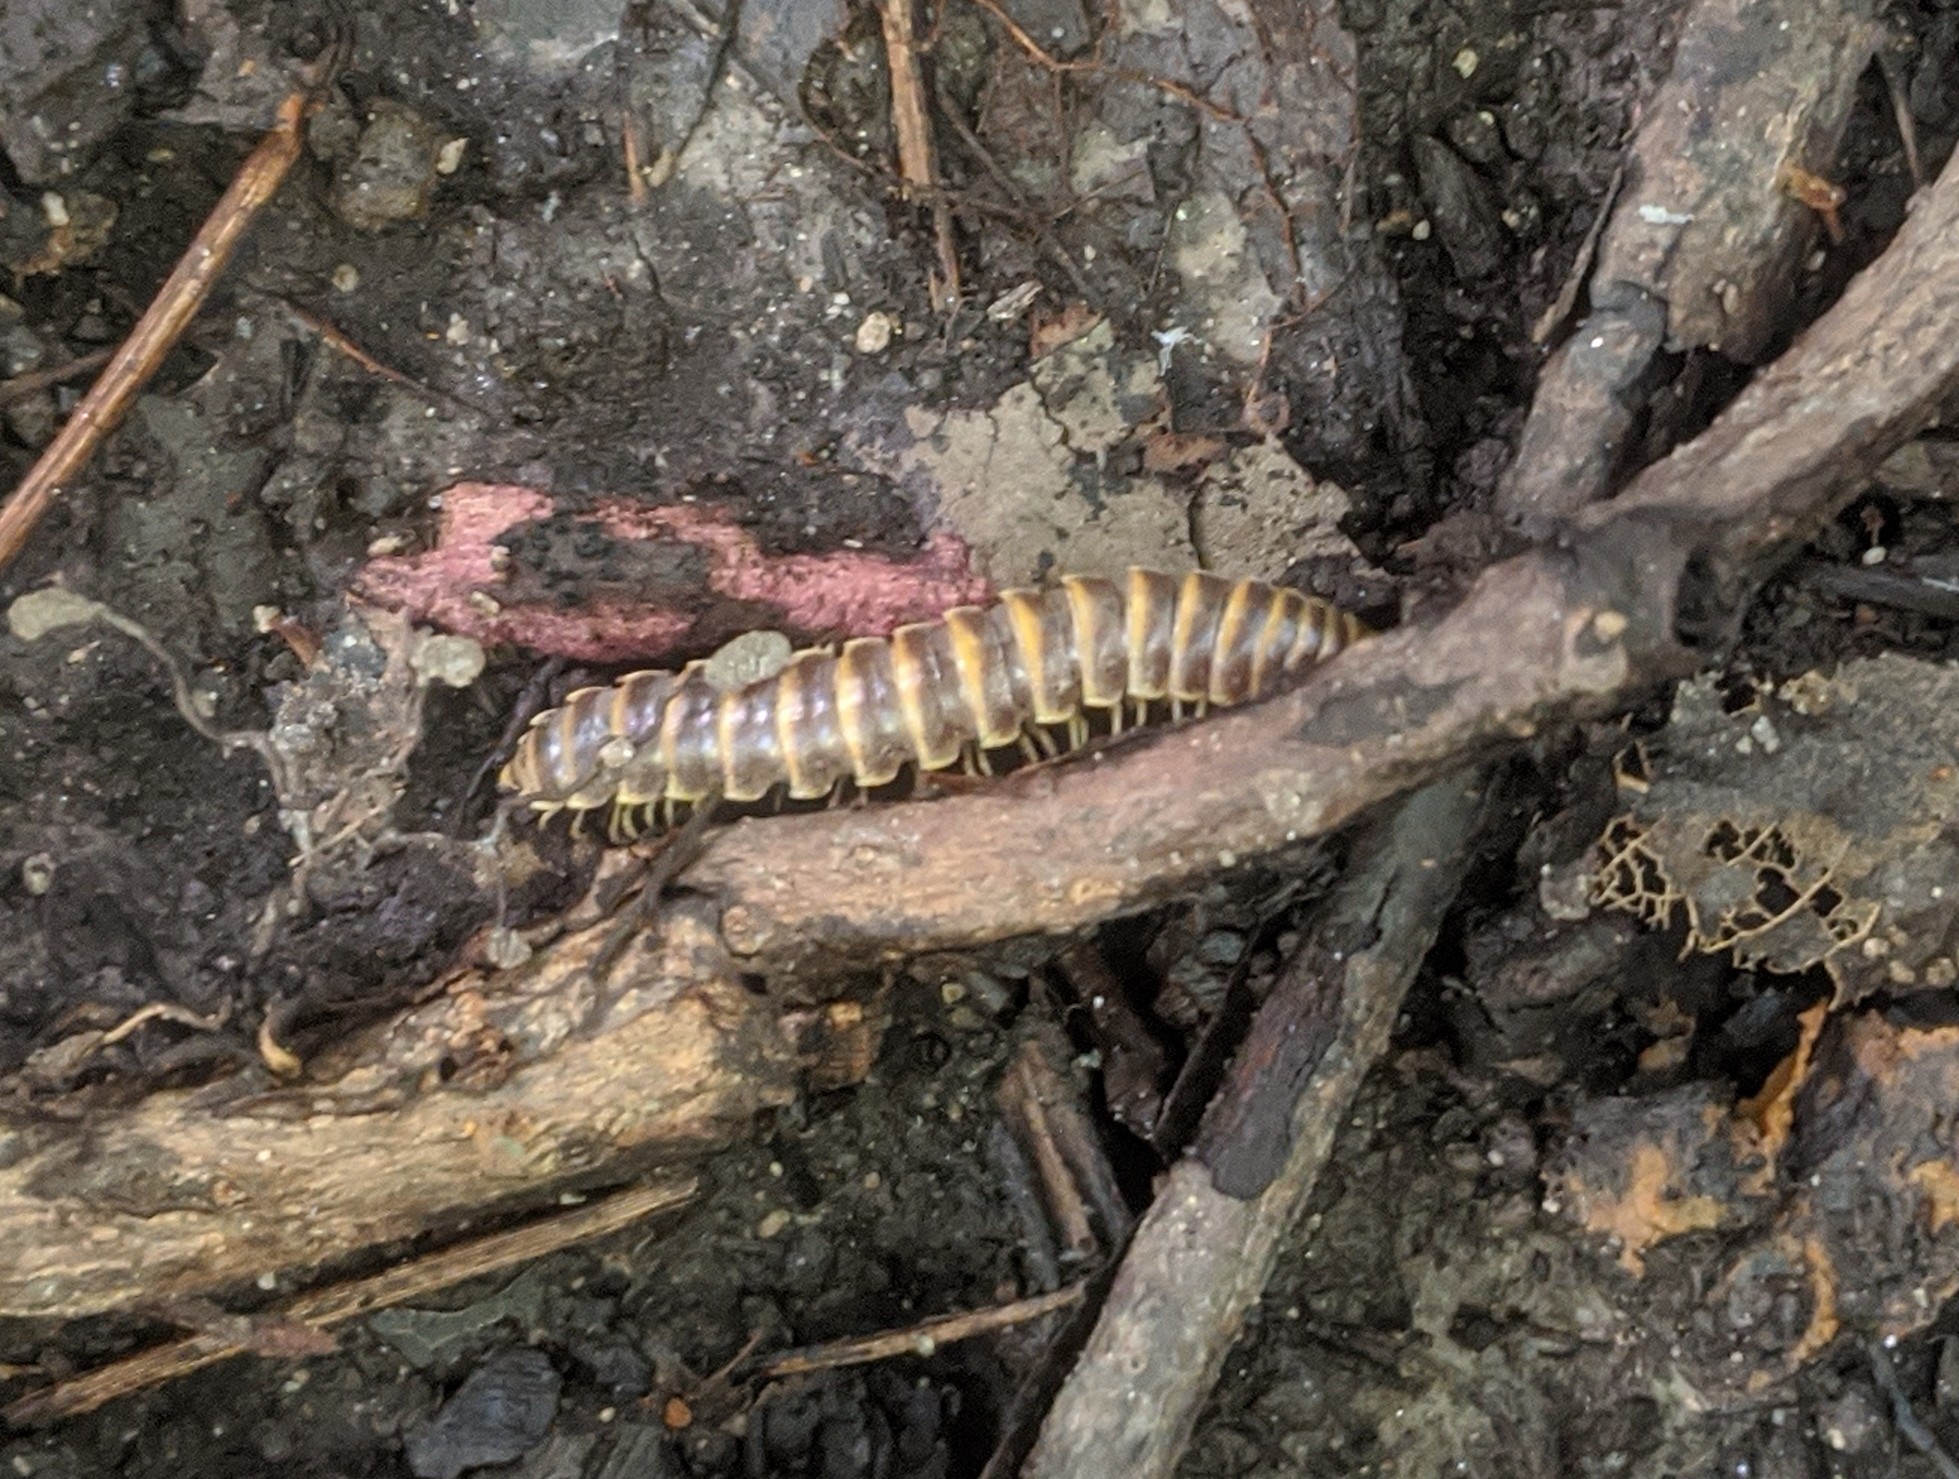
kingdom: Animalia
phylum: Arthropoda
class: Diplopoda
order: Polydesmida
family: Xystodesmidae
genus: Pleuroloma
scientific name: Pleuroloma flavipes
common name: Yellow-legged pleuroloma
